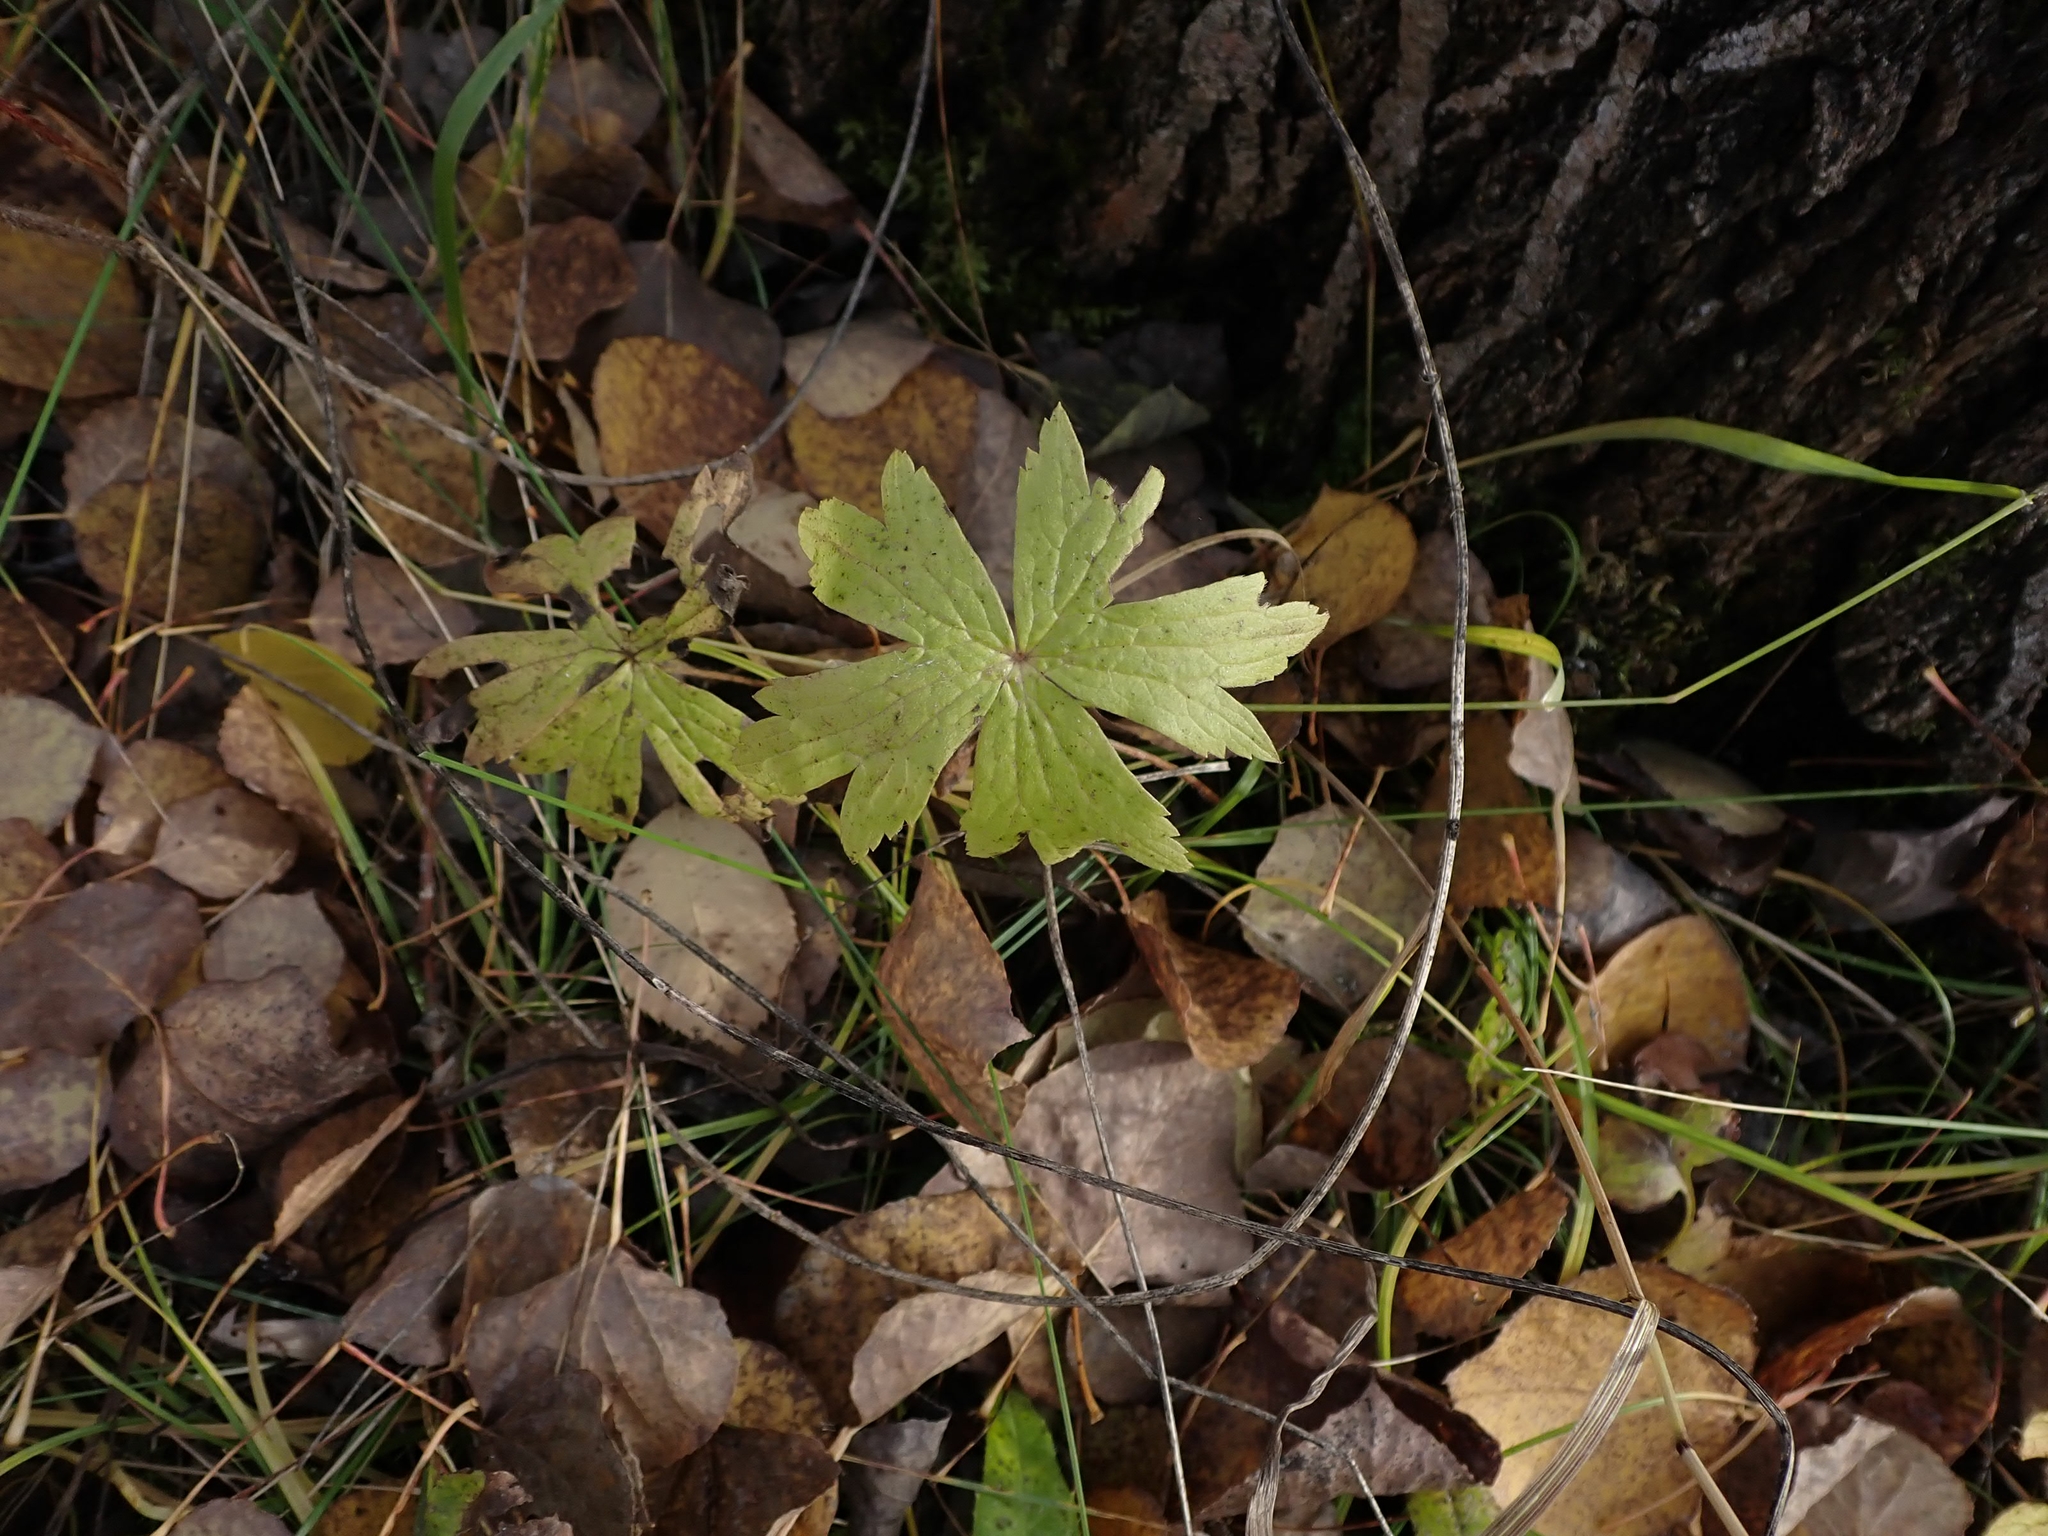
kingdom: Plantae
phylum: Tracheophyta
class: Magnoliopsida
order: Ranunculales
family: Ranunculaceae
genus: Anemonastrum
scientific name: Anemonastrum canadense
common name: Canada anemone
